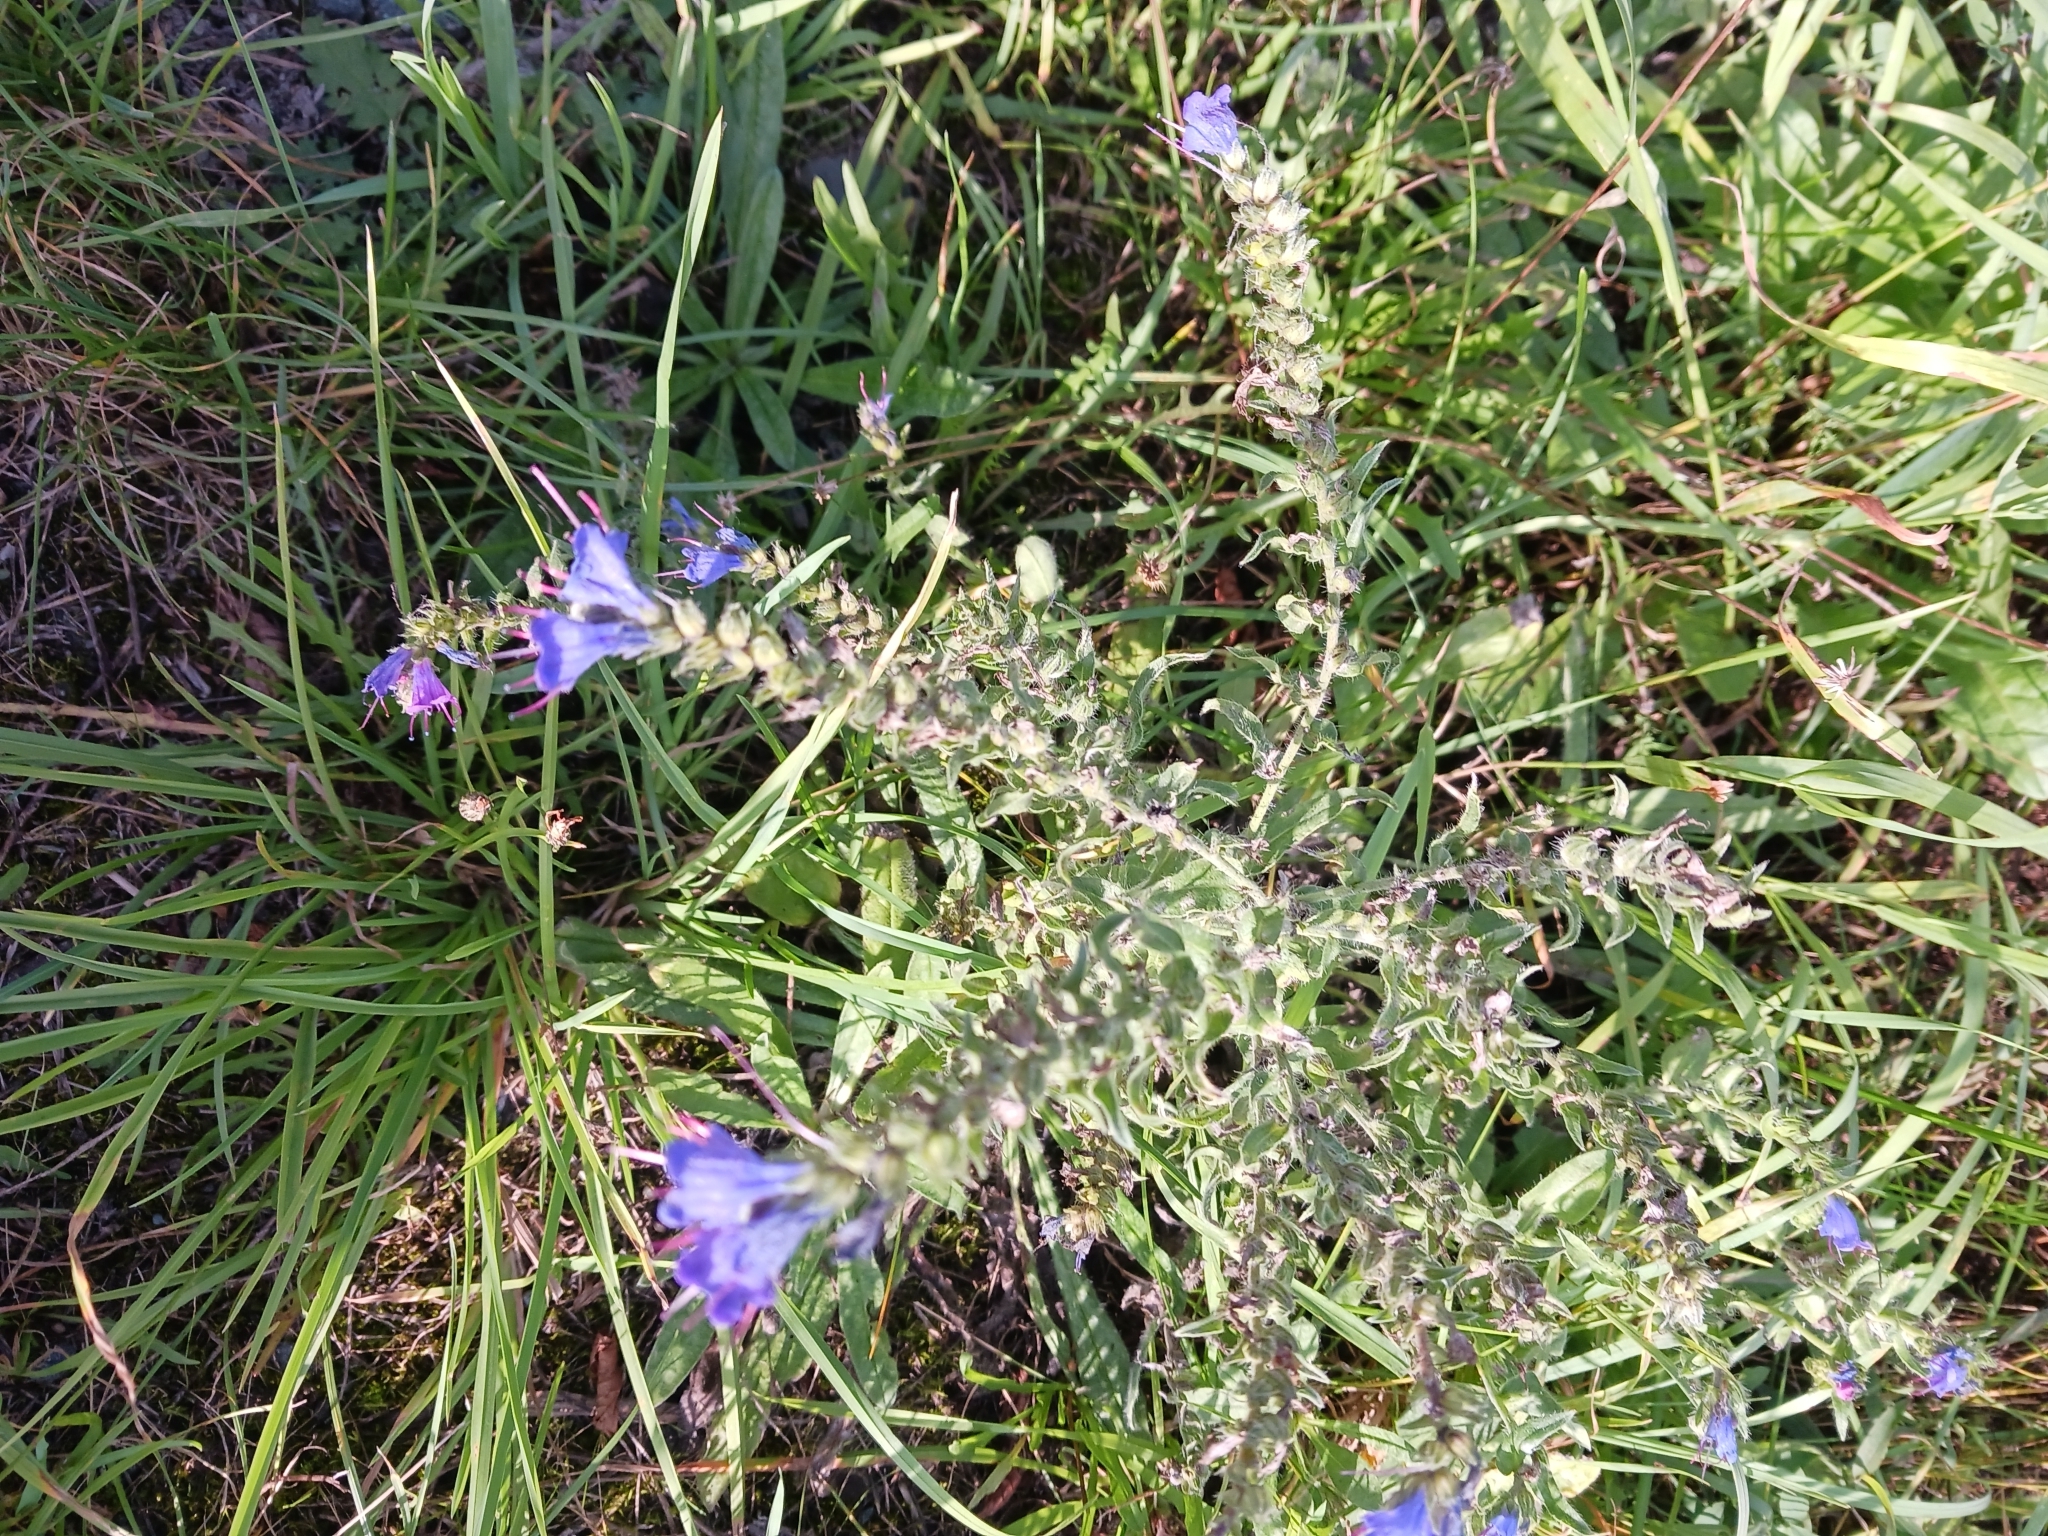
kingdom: Plantae
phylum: Tracheophyta
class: Magnoliopsida
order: Boraginales
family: Boraginaceae
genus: Echium
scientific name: Echium vulgare
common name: Common viper's bugloss
